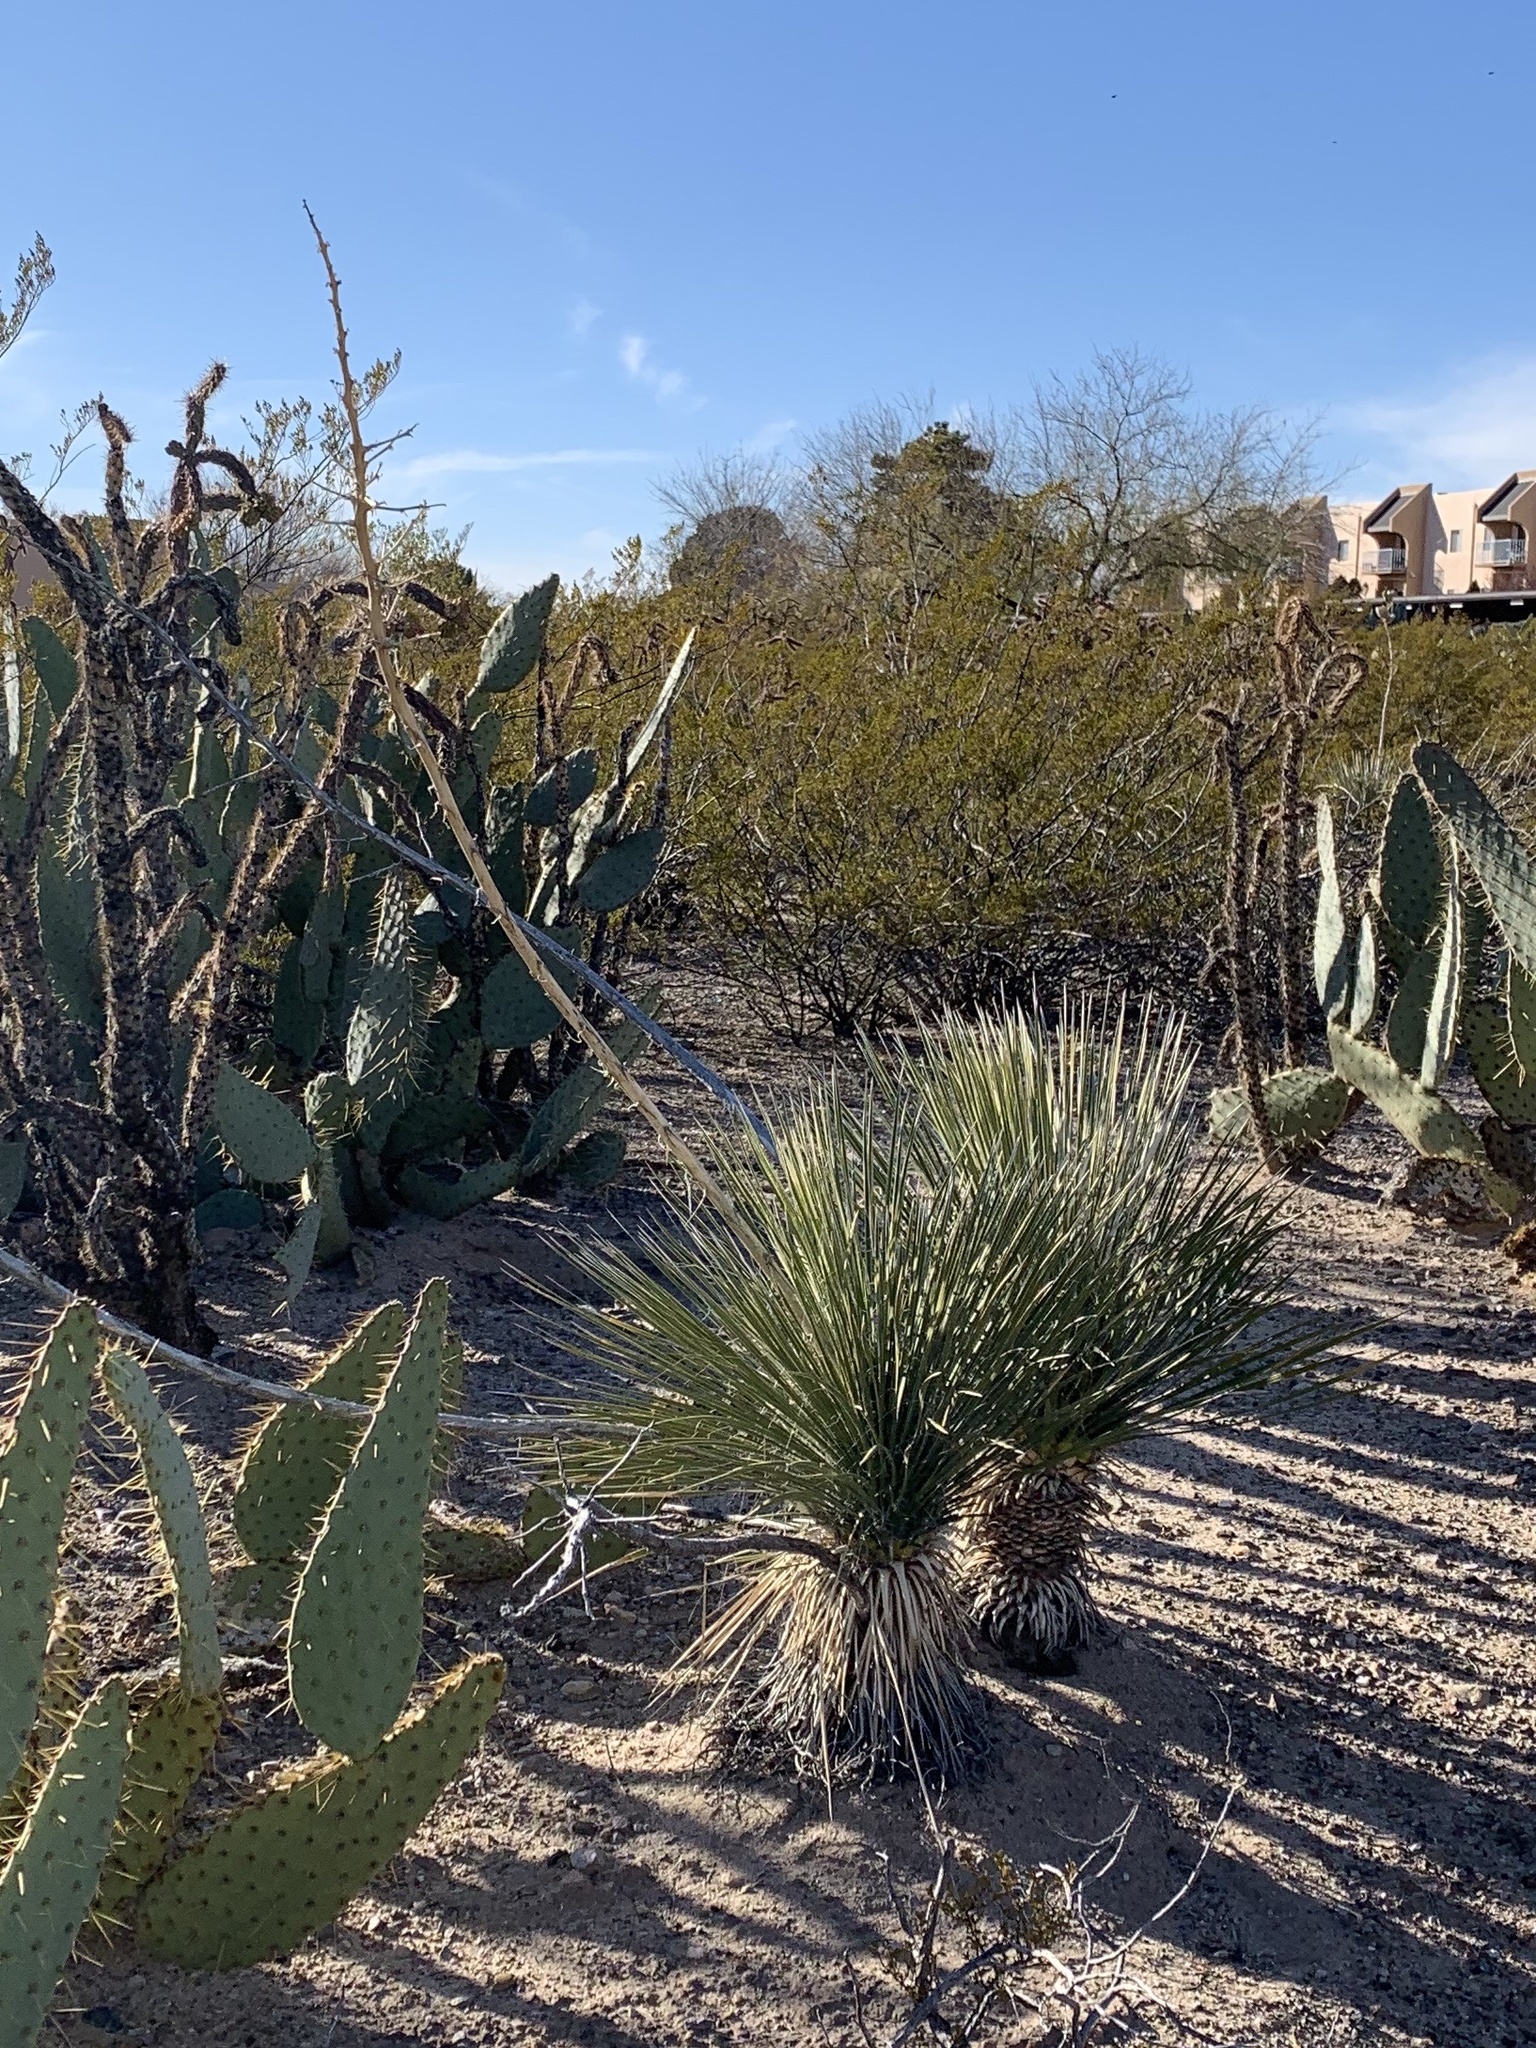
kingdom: Plantae
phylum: Tracheophyta
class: Liliopsida
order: Asparagales
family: Asparagaceae
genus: Yucca
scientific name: Yucca elata
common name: Palmella
